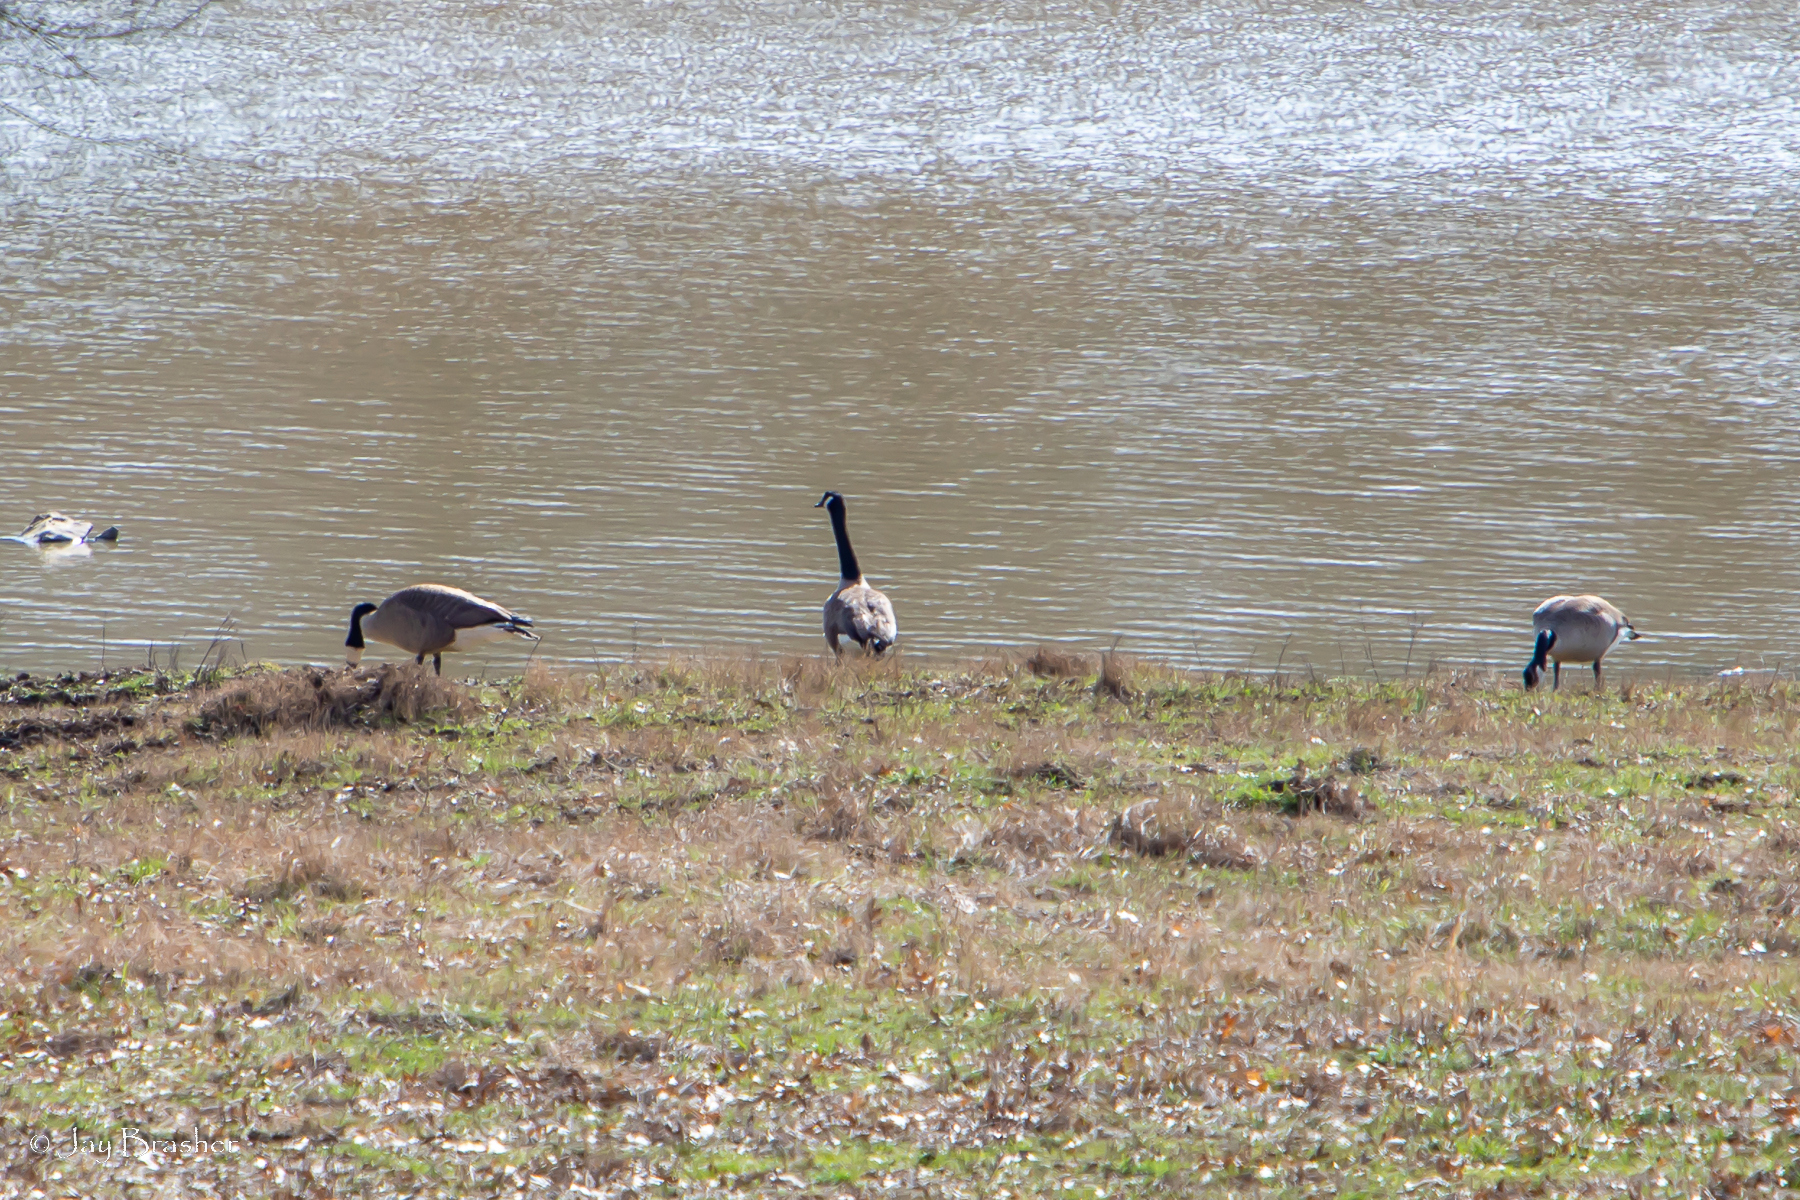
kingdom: Animalia
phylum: Chordata
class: Aves
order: Anseriformes
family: Anatidae
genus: Branta
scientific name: Branta canadensis
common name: Canada goose
